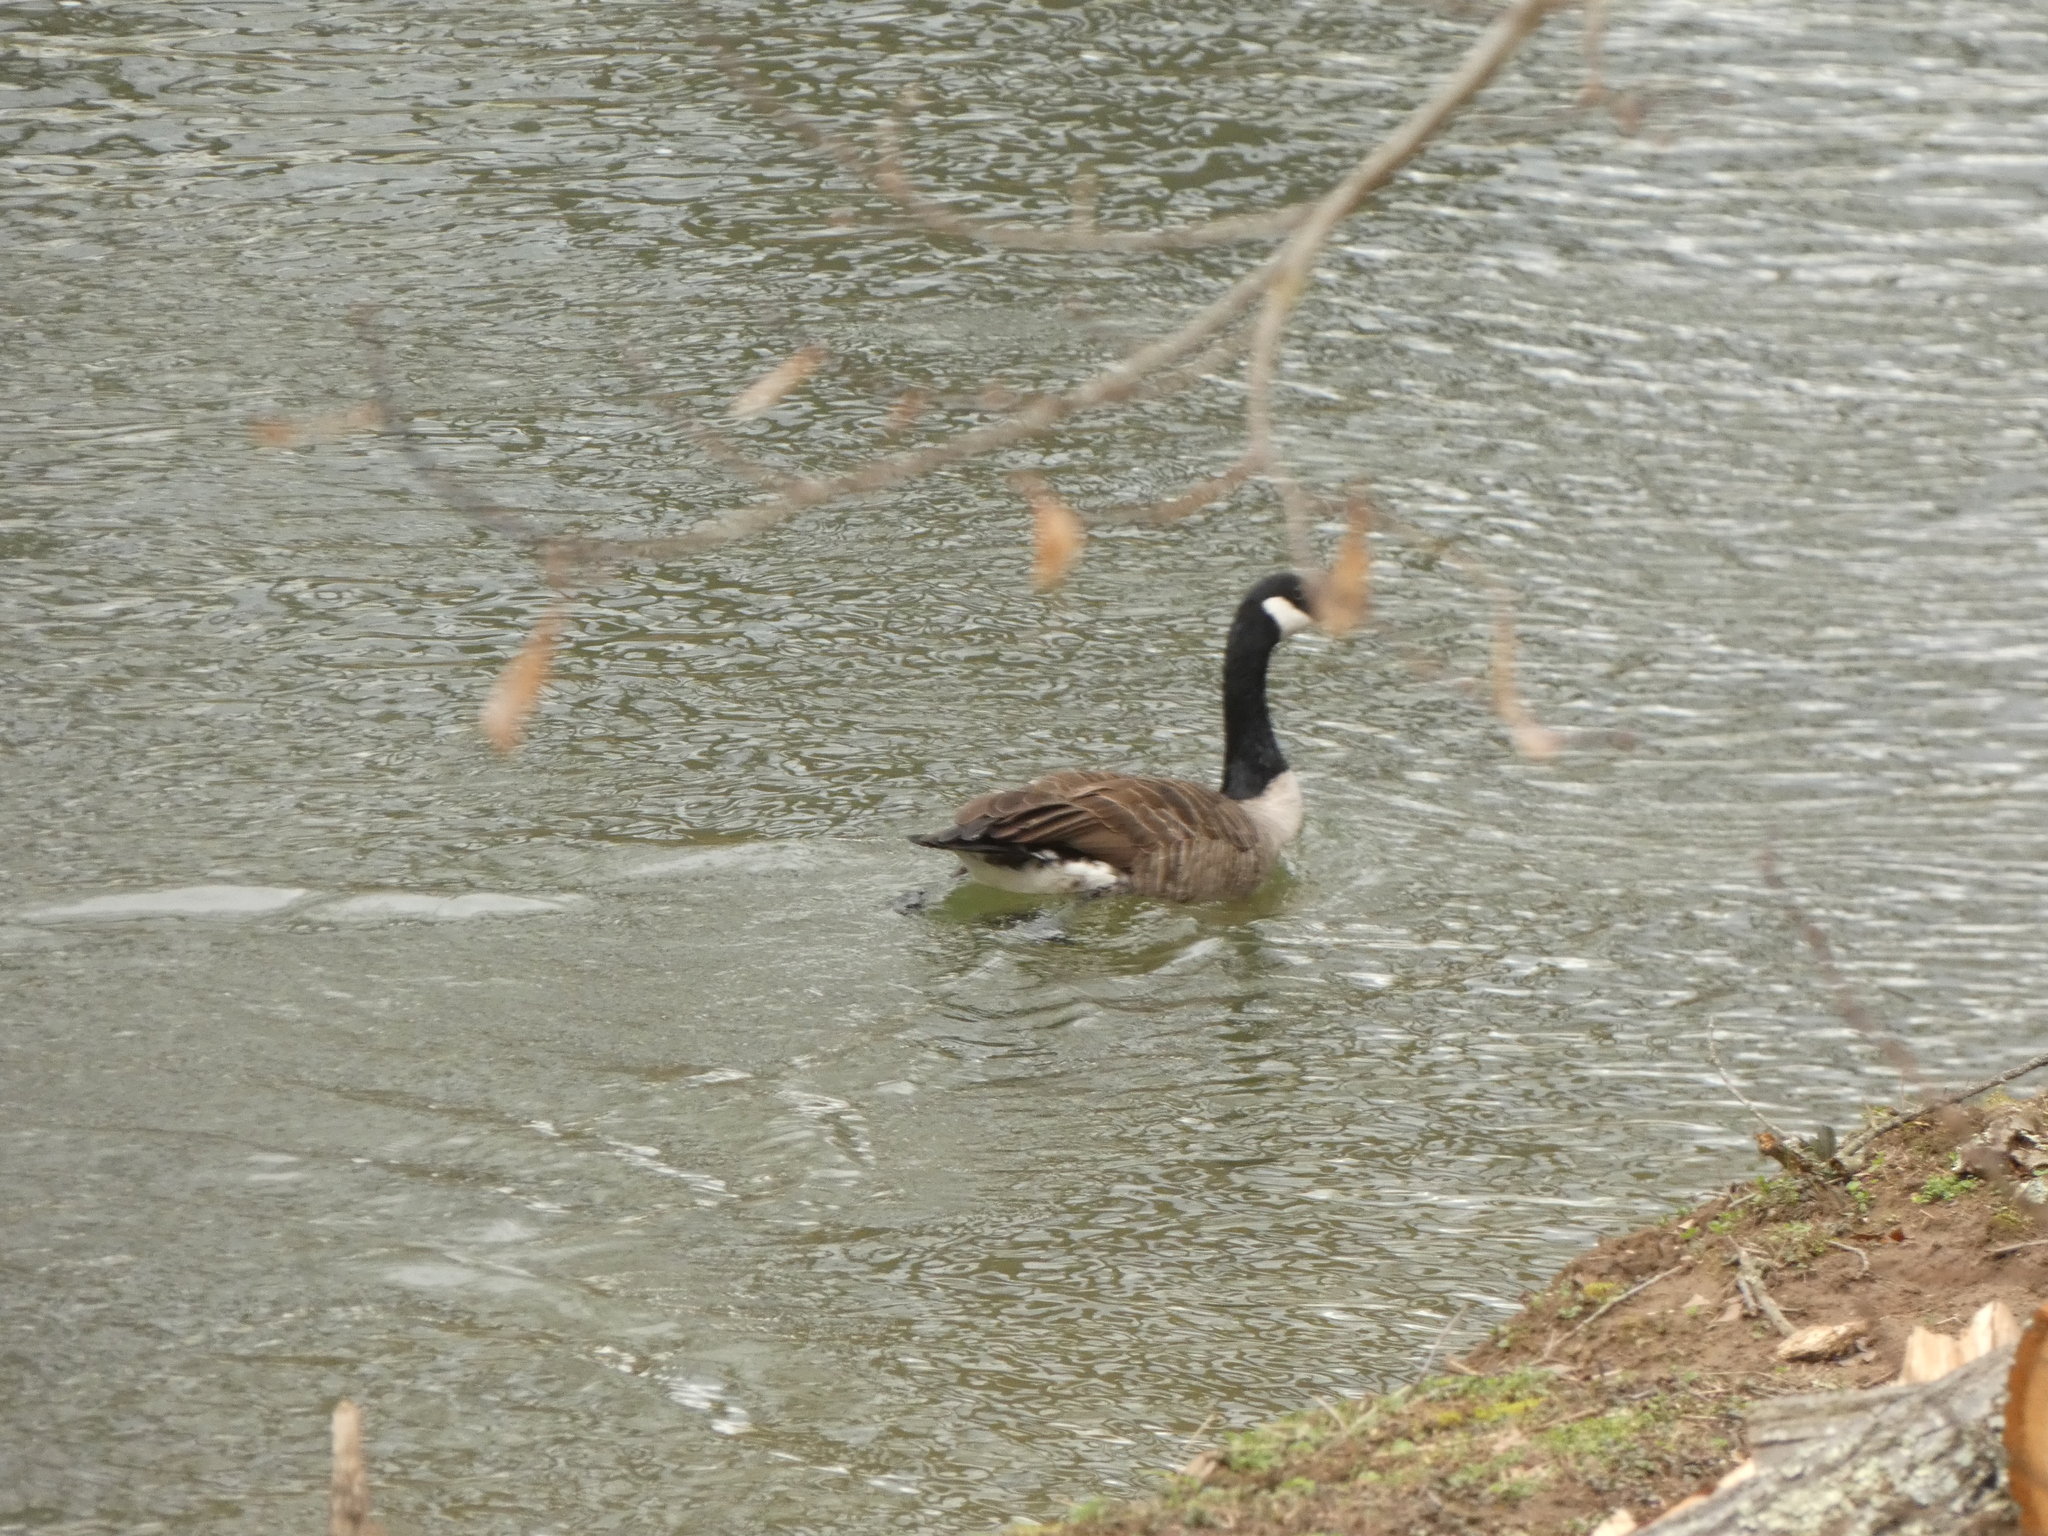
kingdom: Animalia
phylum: Chordata
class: Aves
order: Anseriformes
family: Anatidae
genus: Branta
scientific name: Branta canadensis
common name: Canada goose
